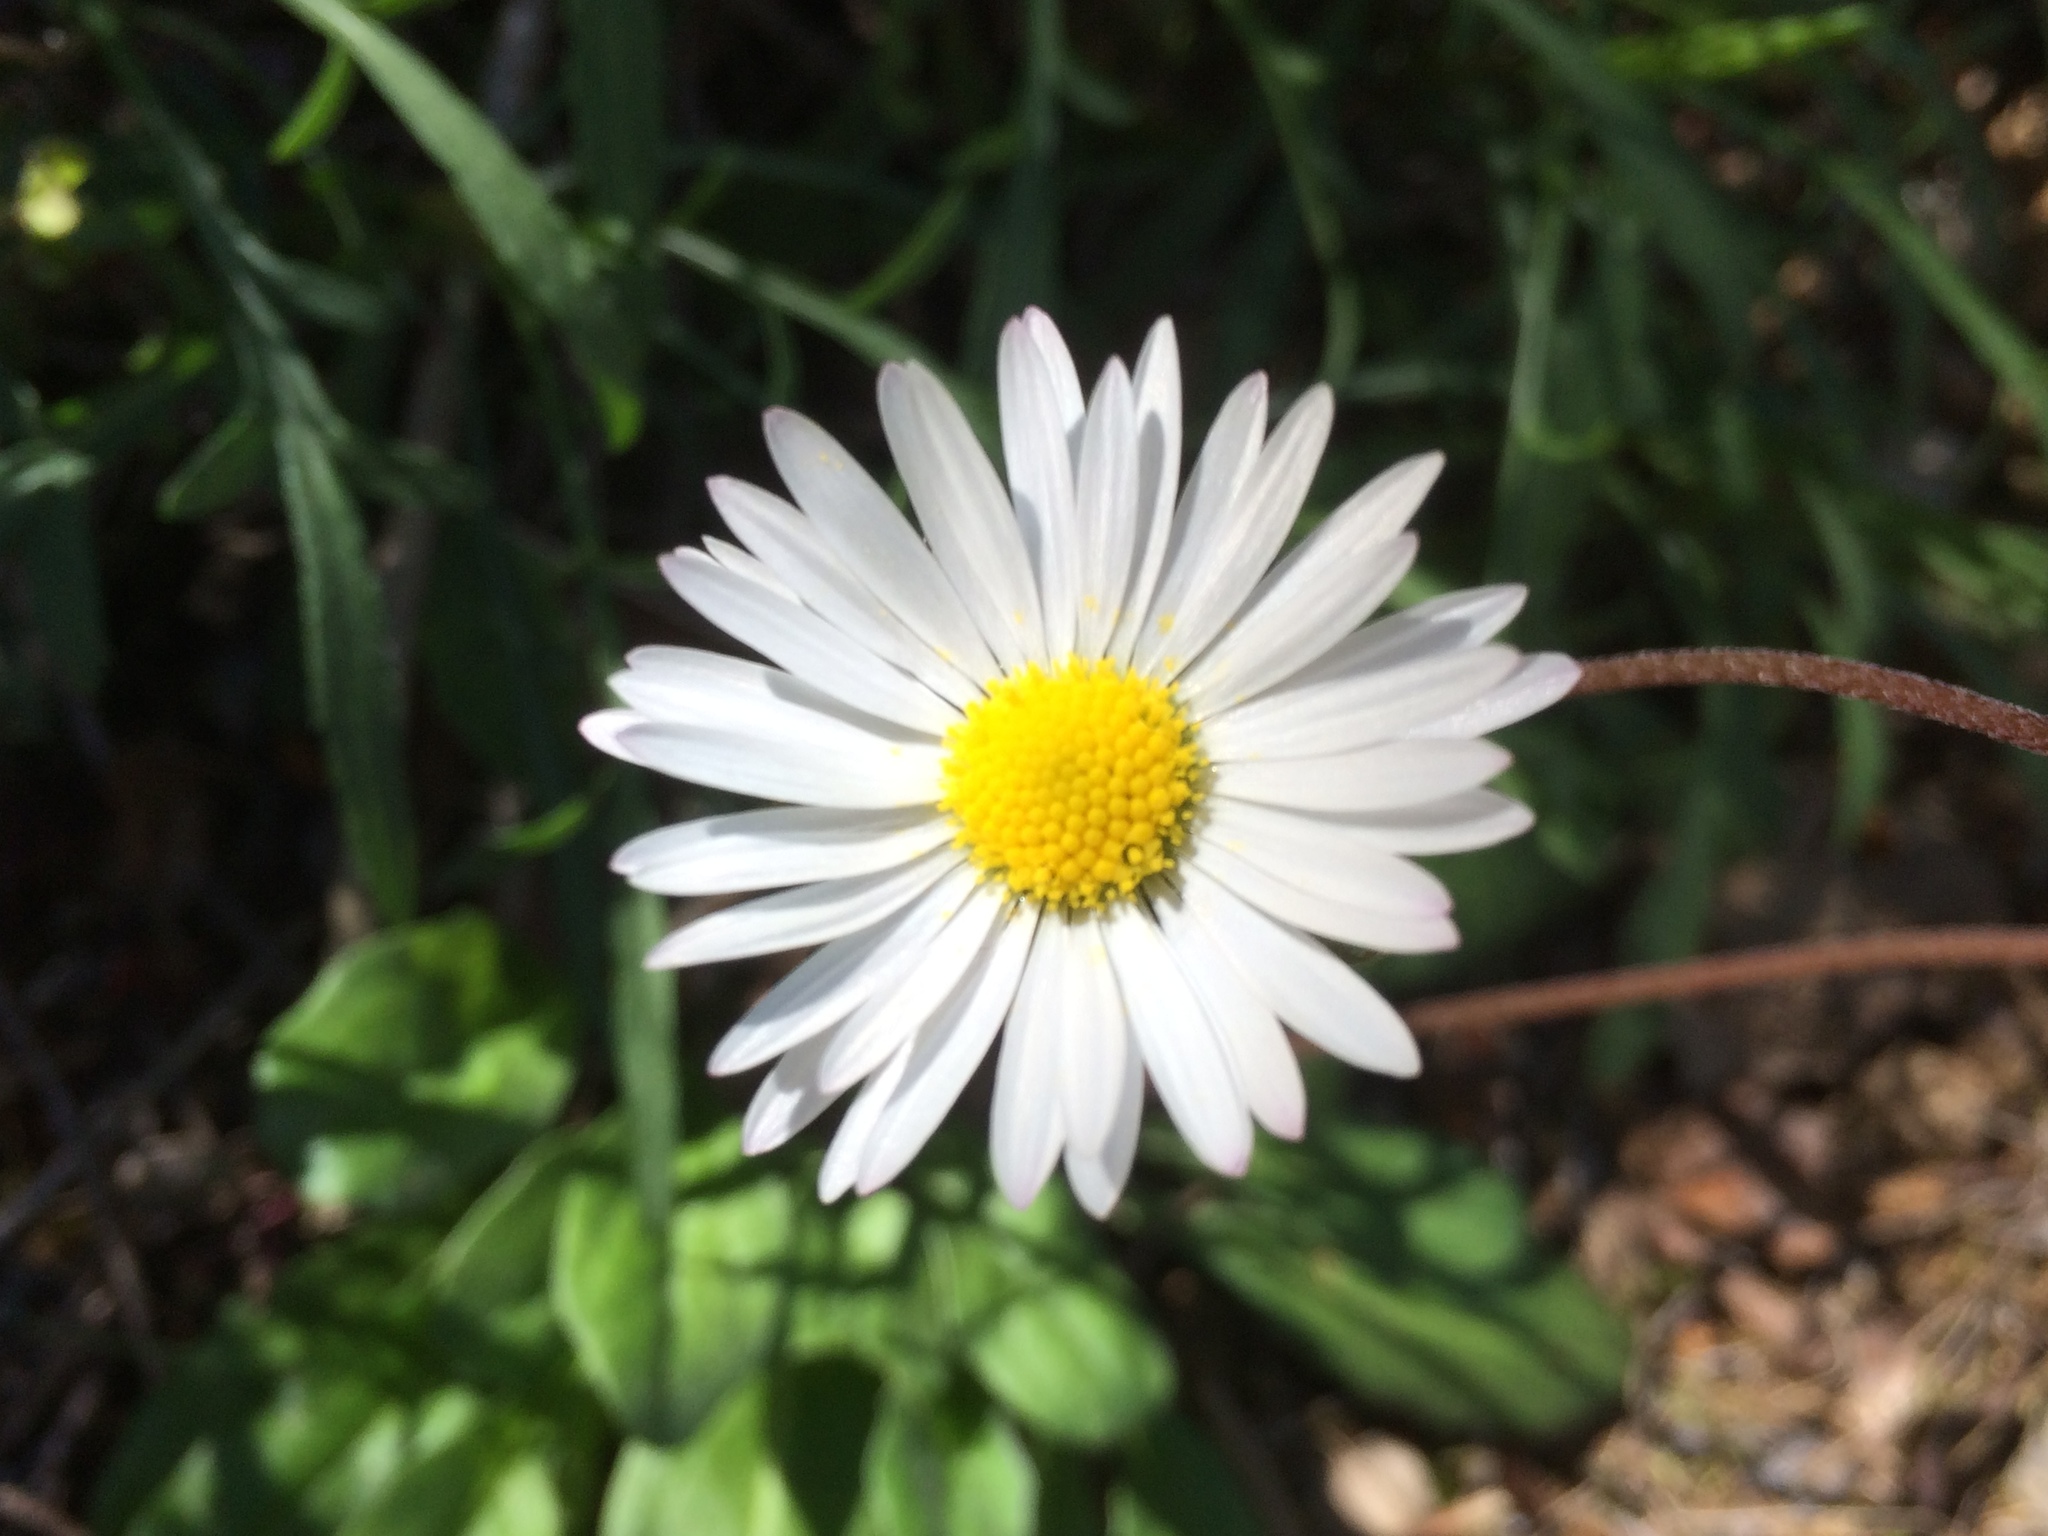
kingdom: Plantae
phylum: Tracheophyta
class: Magnoliopsida
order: Asterales
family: Asteraceae
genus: Bellis
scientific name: Bellis perennis
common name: Lawndaisy
